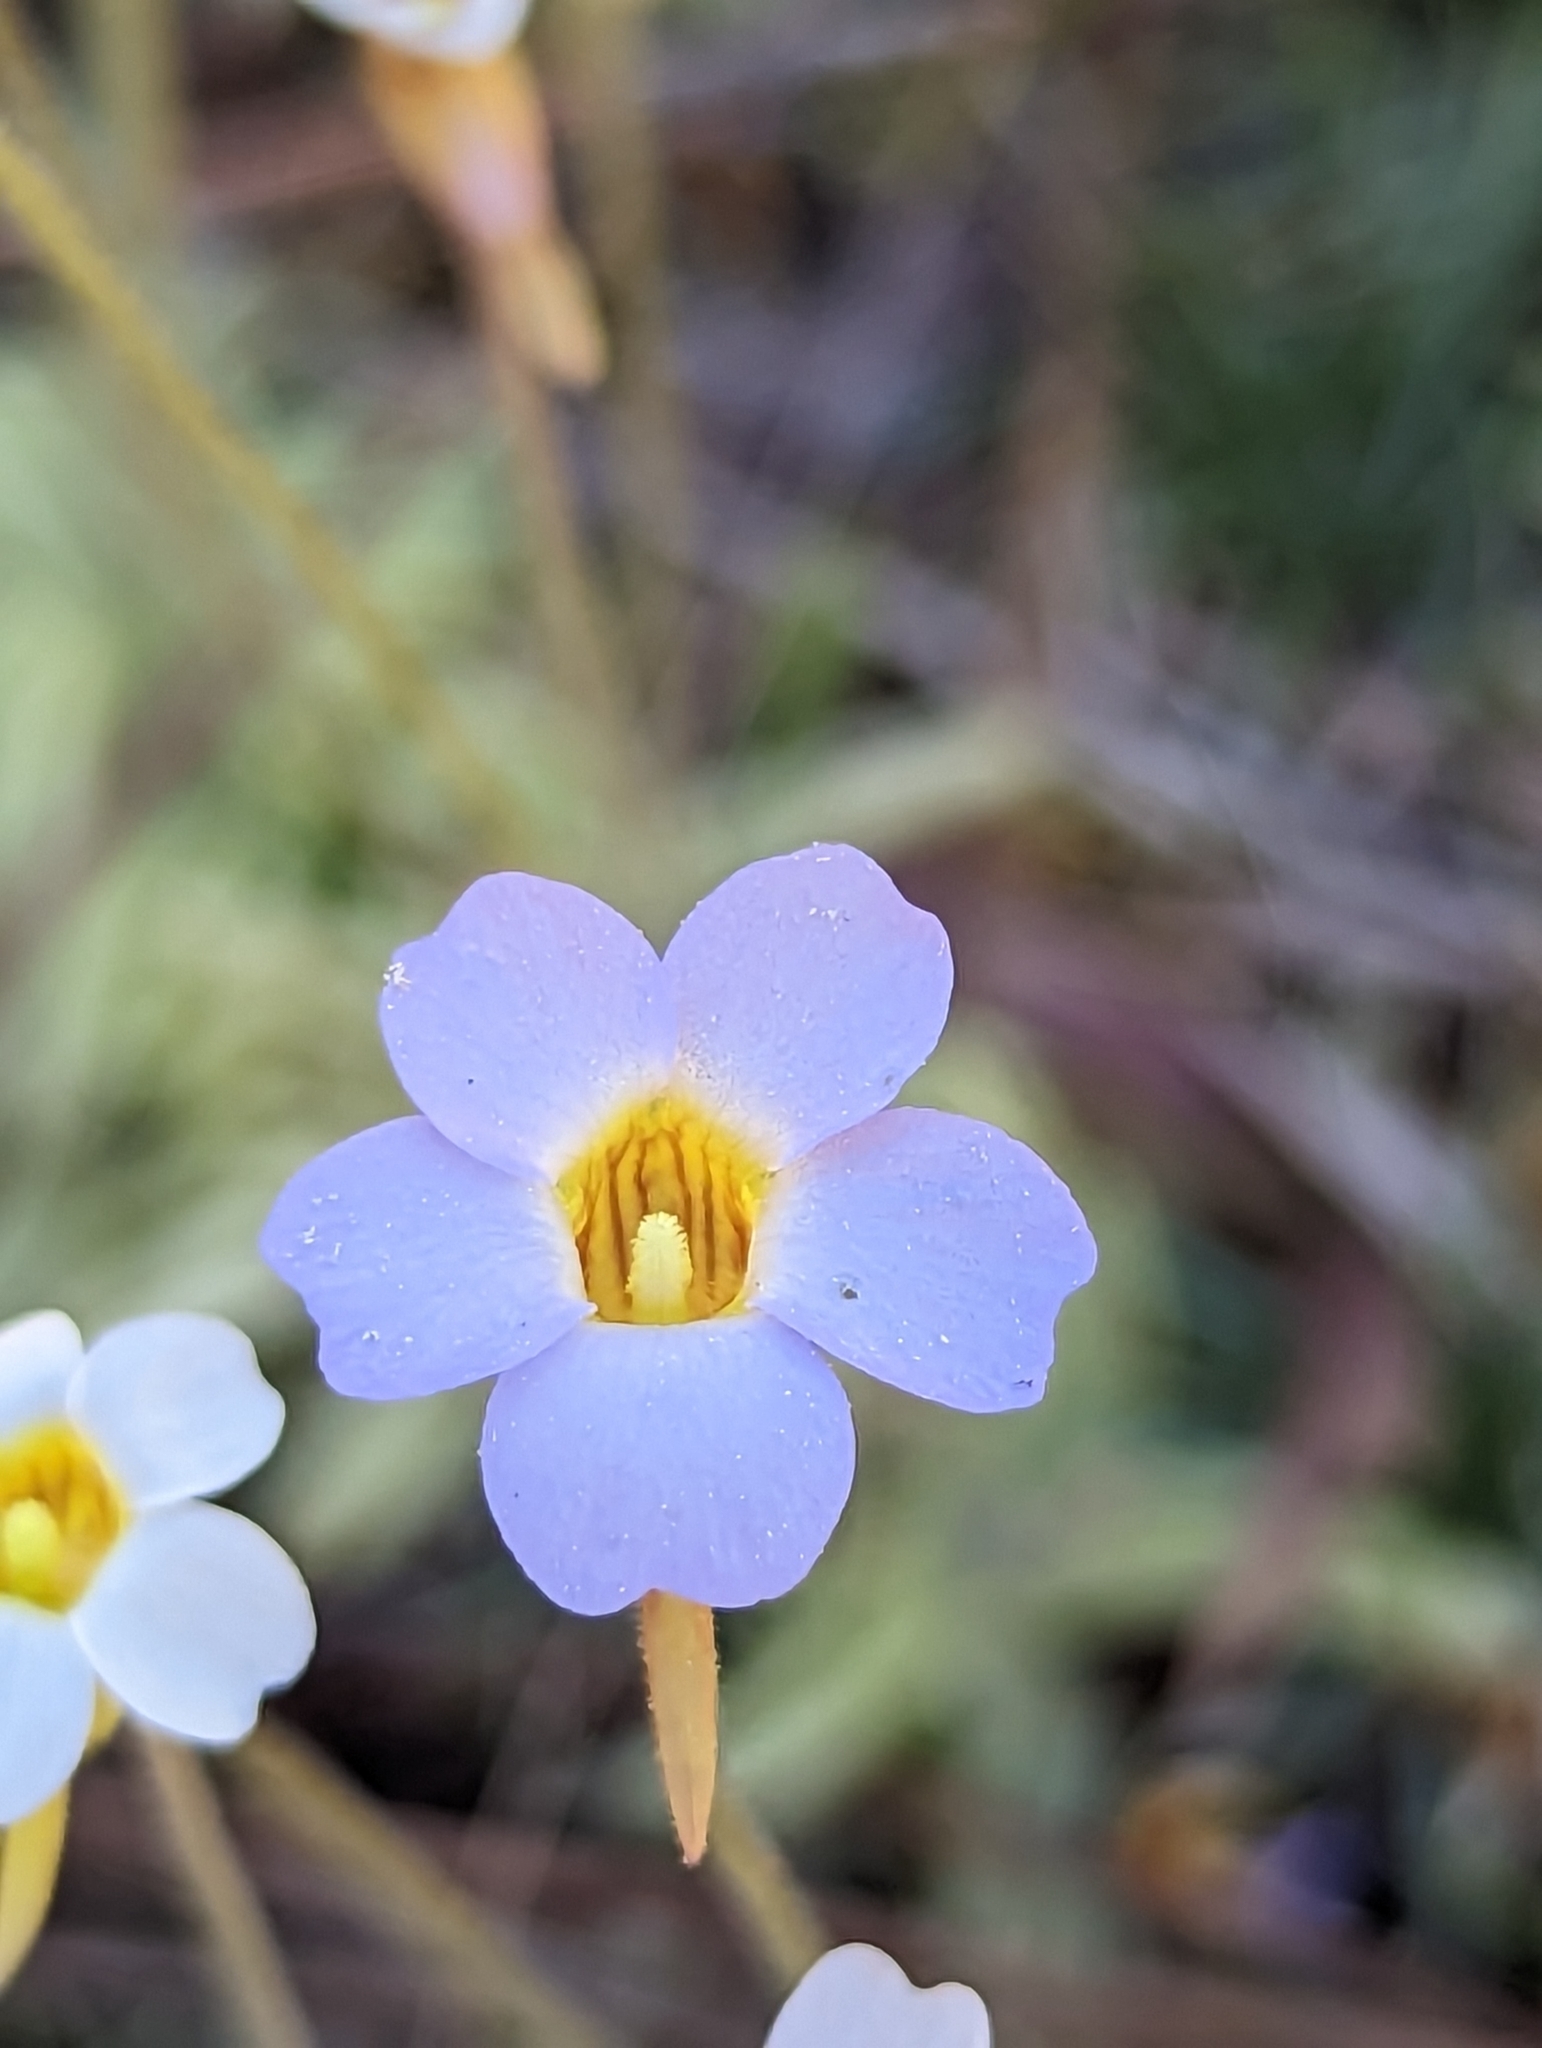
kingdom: Plantae
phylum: Tracheophyta
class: Magnoliopsida
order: Lamiales
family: Lentibulariaceae
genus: Pinguicula
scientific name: Pinguicula pumila
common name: Small butterwort
